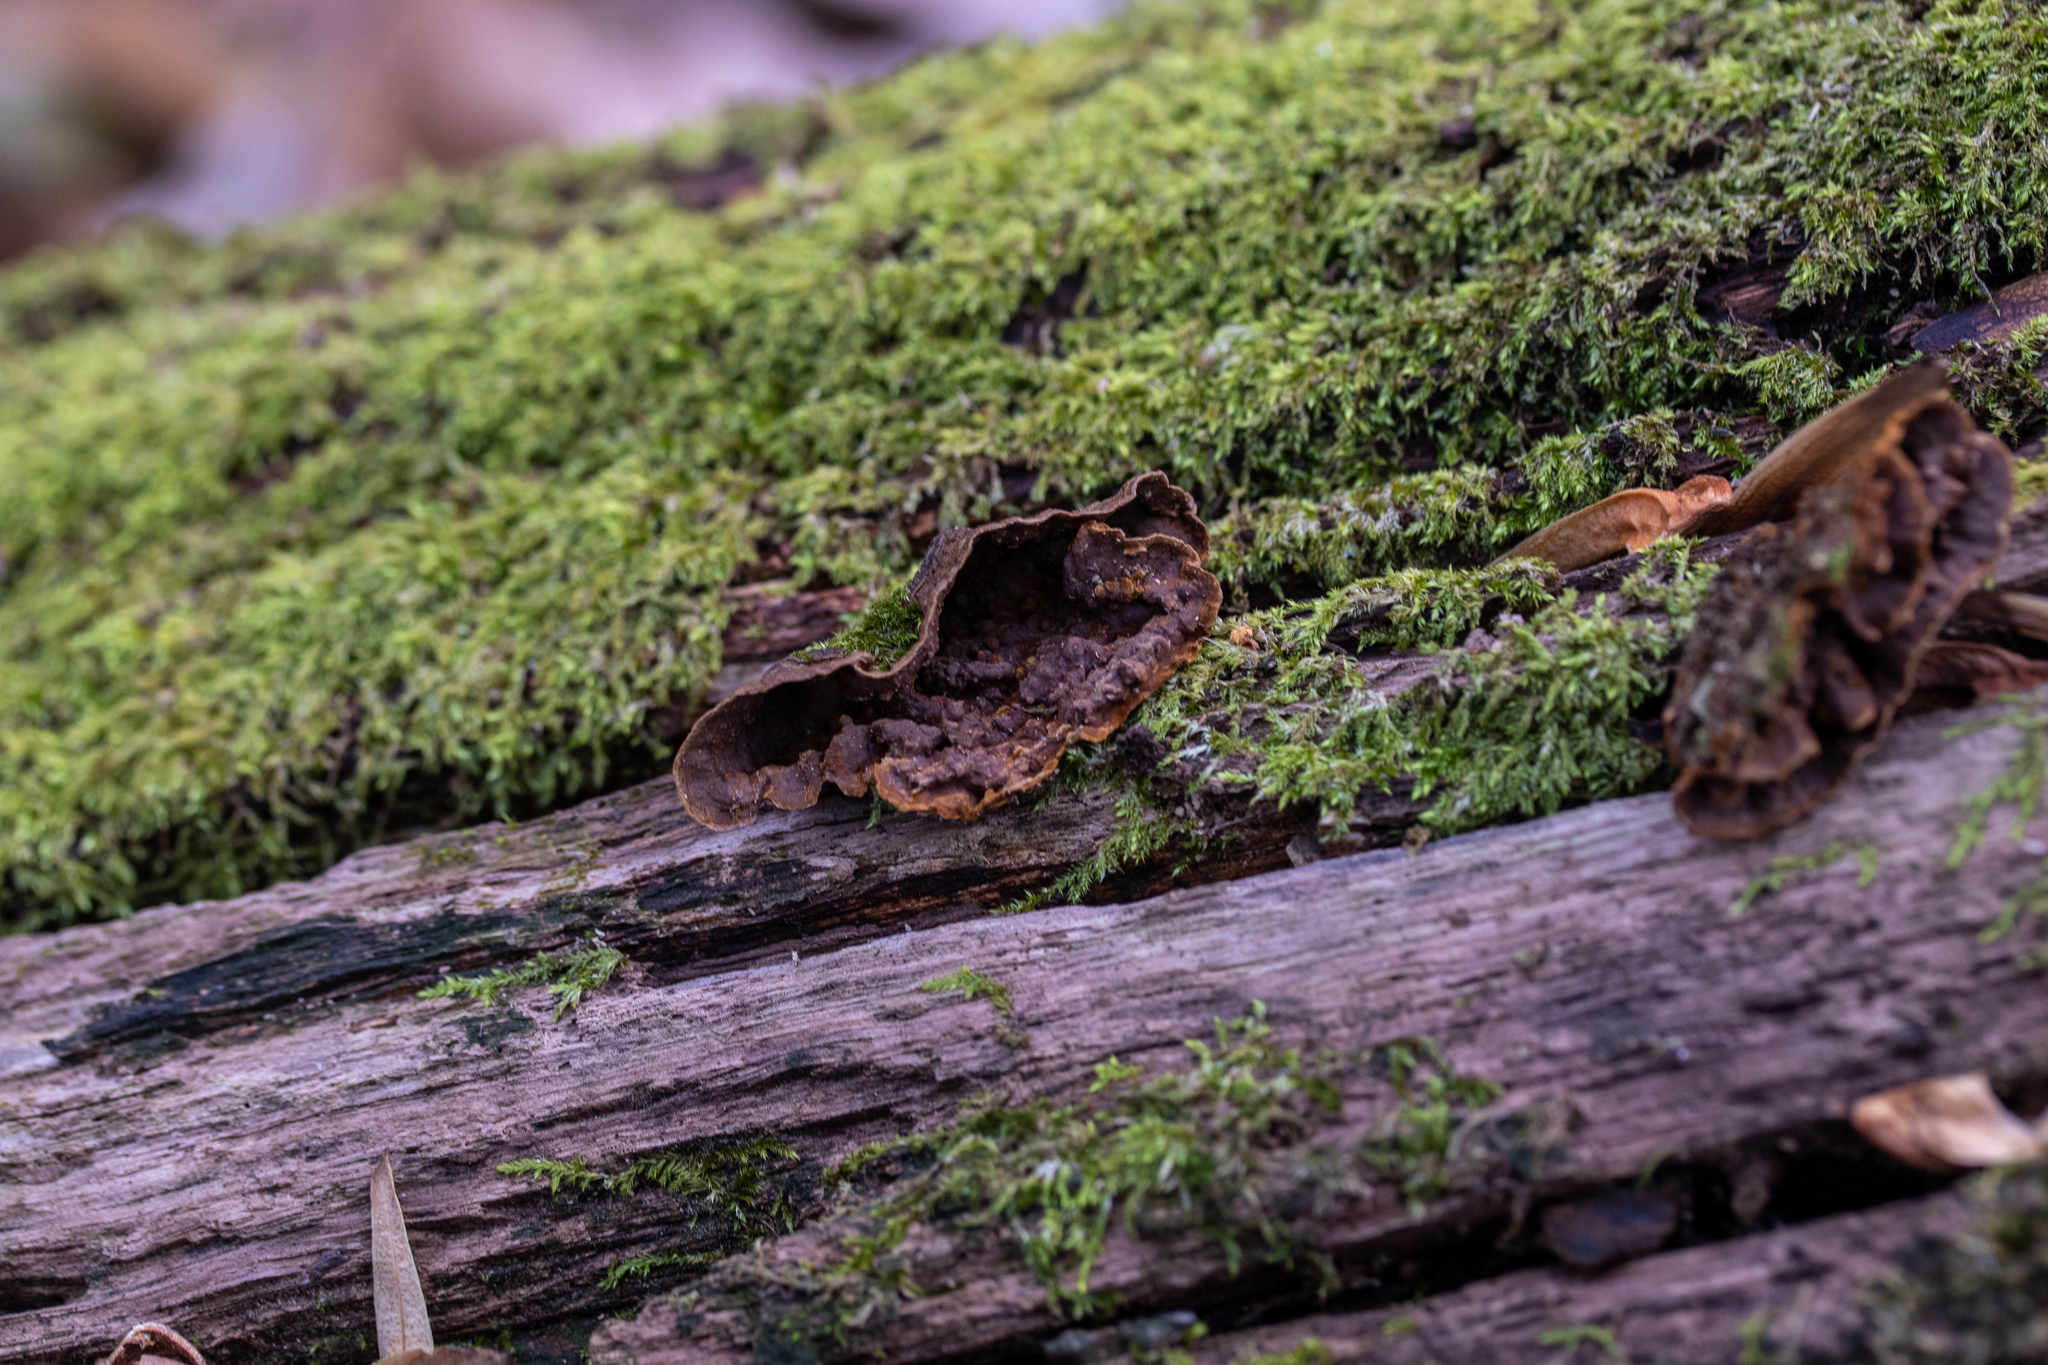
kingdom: Fungi
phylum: Basidiomycota
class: Agaricomycetes
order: Hymenochaetales
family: Hymenochaetaceae
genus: Hymenochaete
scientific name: Hymenochaete rubiginosa
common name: Oak curtain crust
